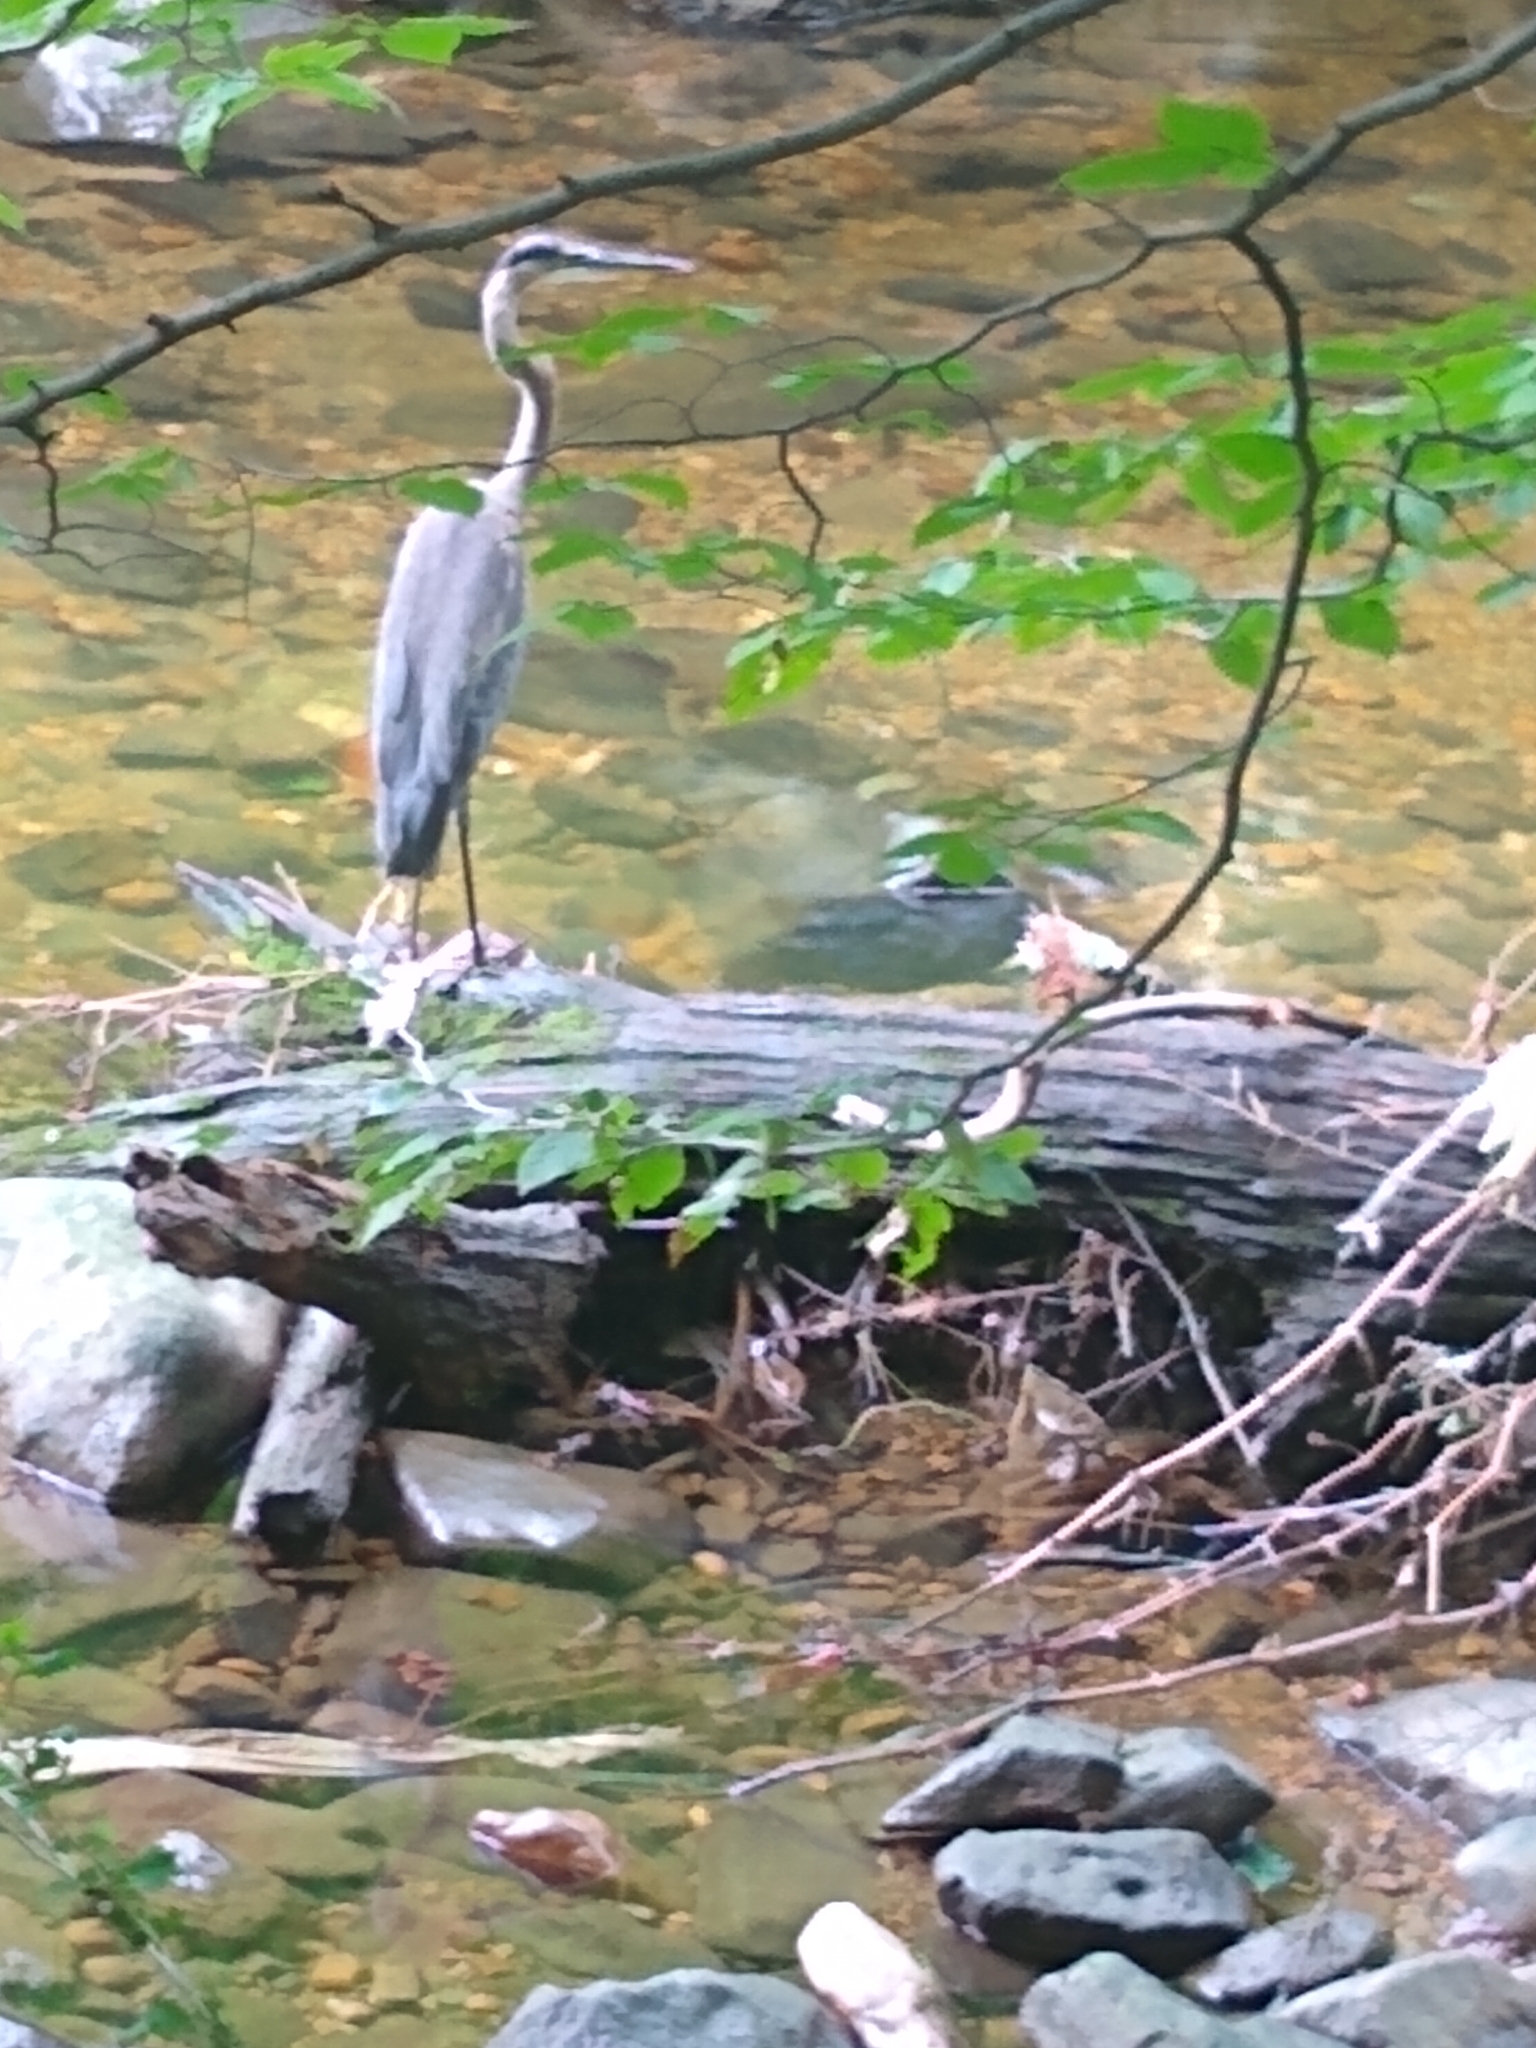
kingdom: Animalia
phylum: Chordata
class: Aves
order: Pelecaniformes
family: Ardeidae
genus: Ardea
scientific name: Ardea herodias
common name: Great blue heron
